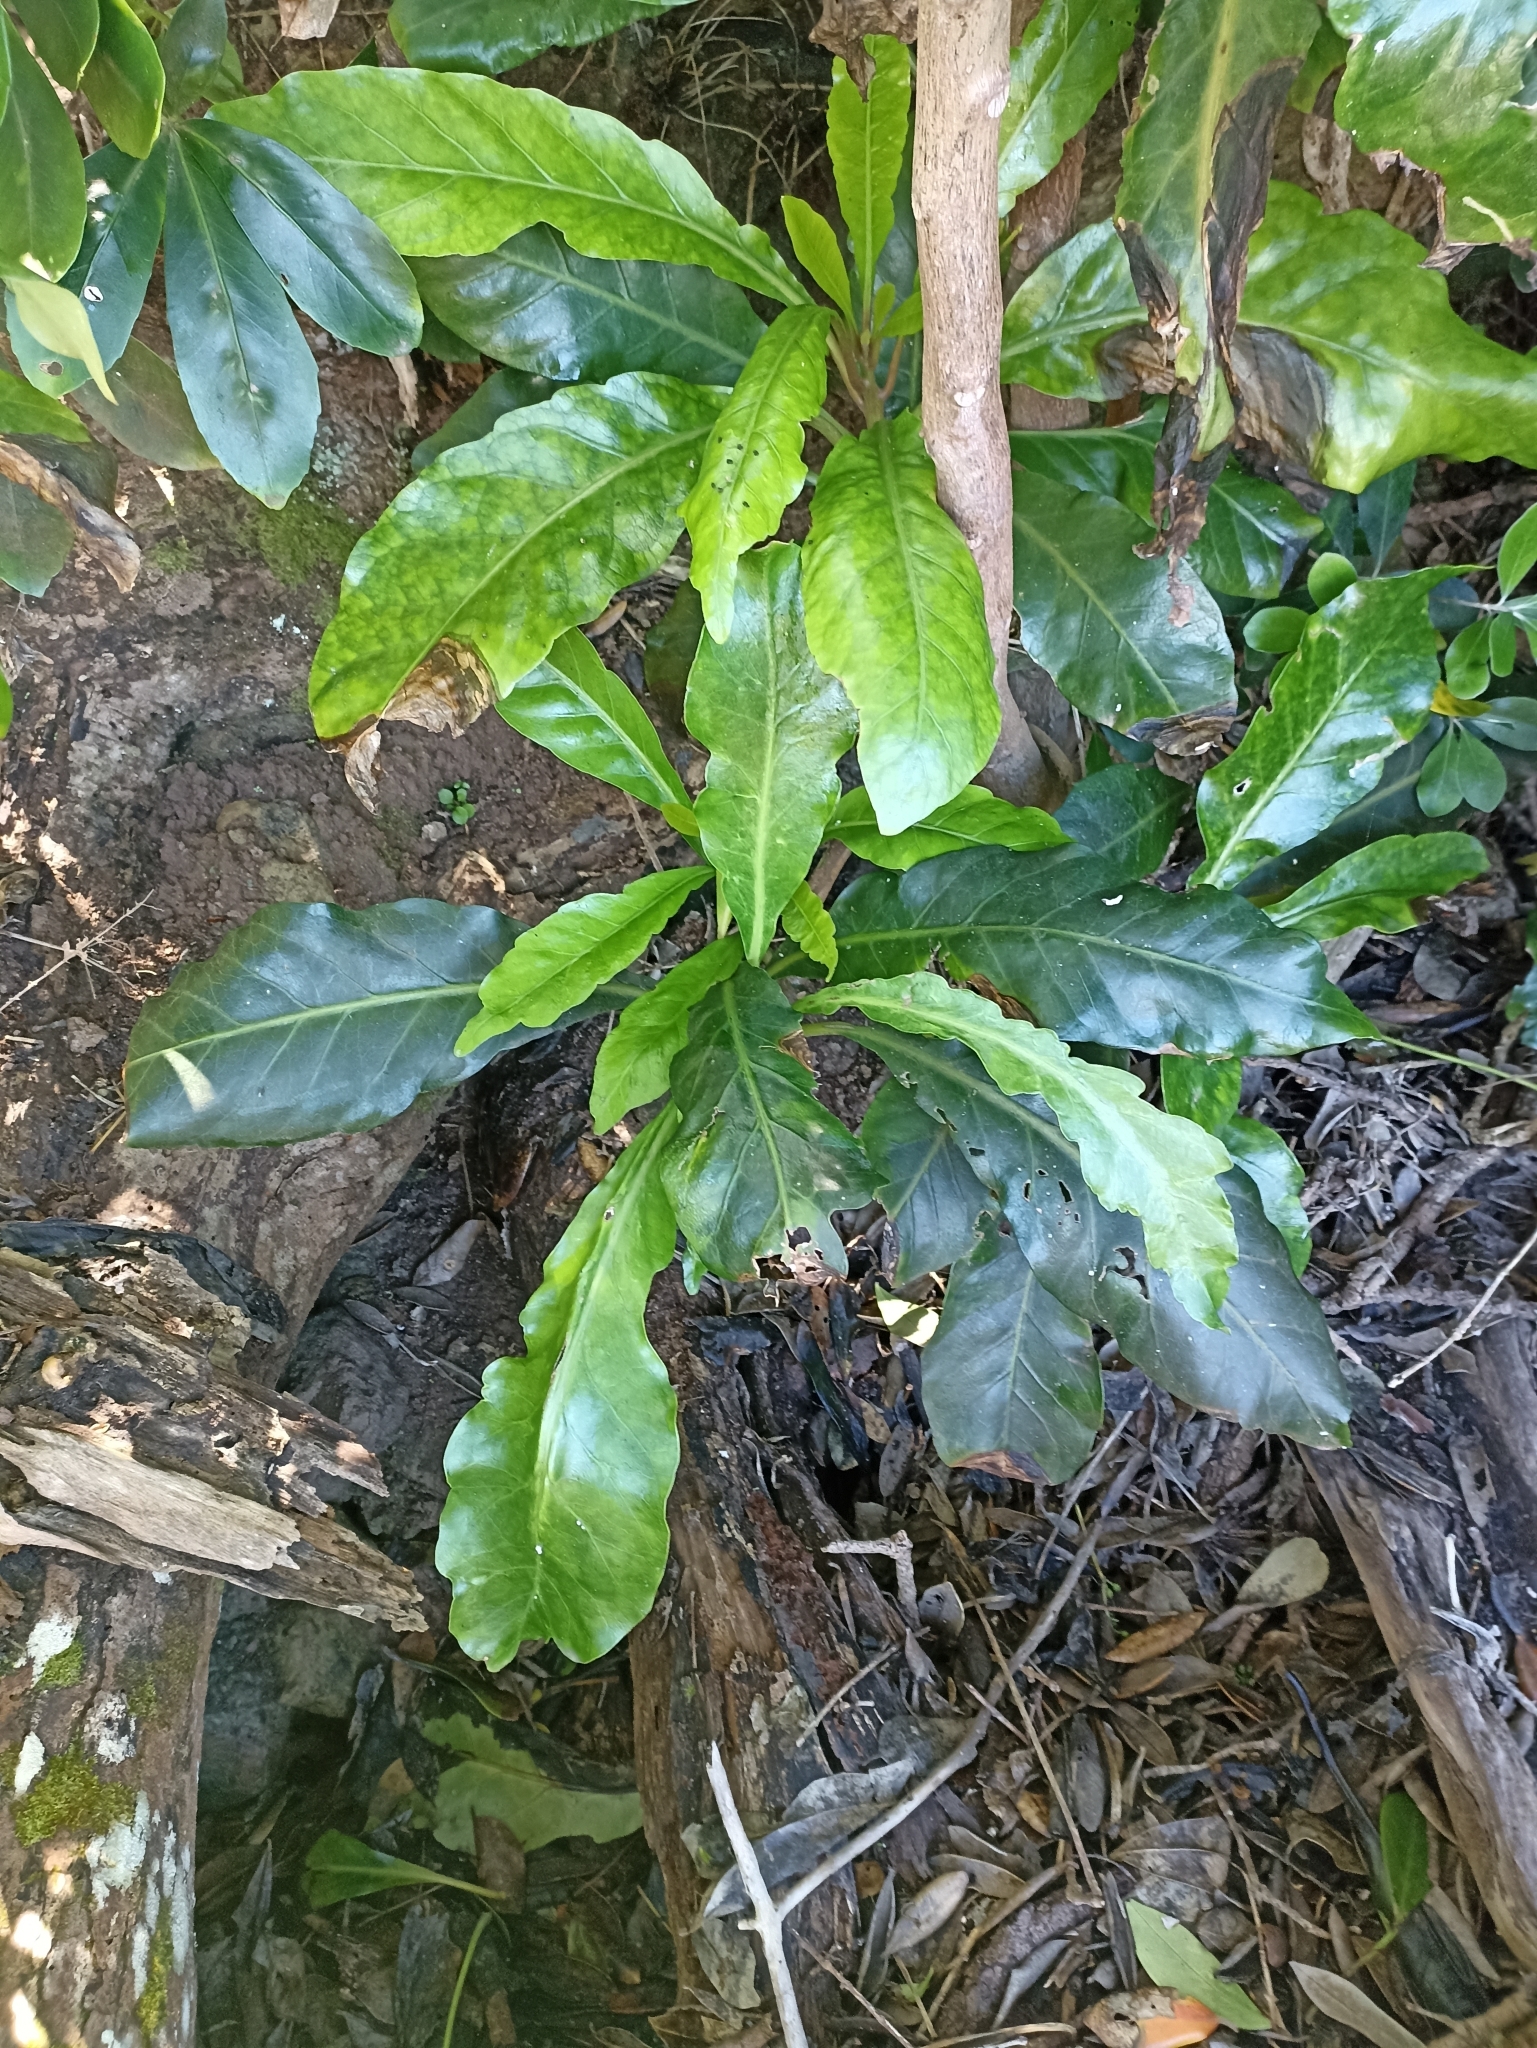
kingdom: Plantae
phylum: Tracheophyta
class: Magnoliopsida
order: Caryophyllales
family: Nyctaginaceae
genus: Ceodes
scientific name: Ceodes brunoniana
